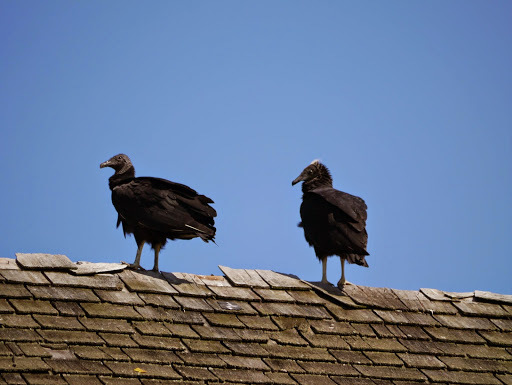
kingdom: Animalia
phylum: Chordata
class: Aves
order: Accipitriformes
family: Cathartidae
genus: Coragyps
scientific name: Coragyps atratus
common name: Black vulture
